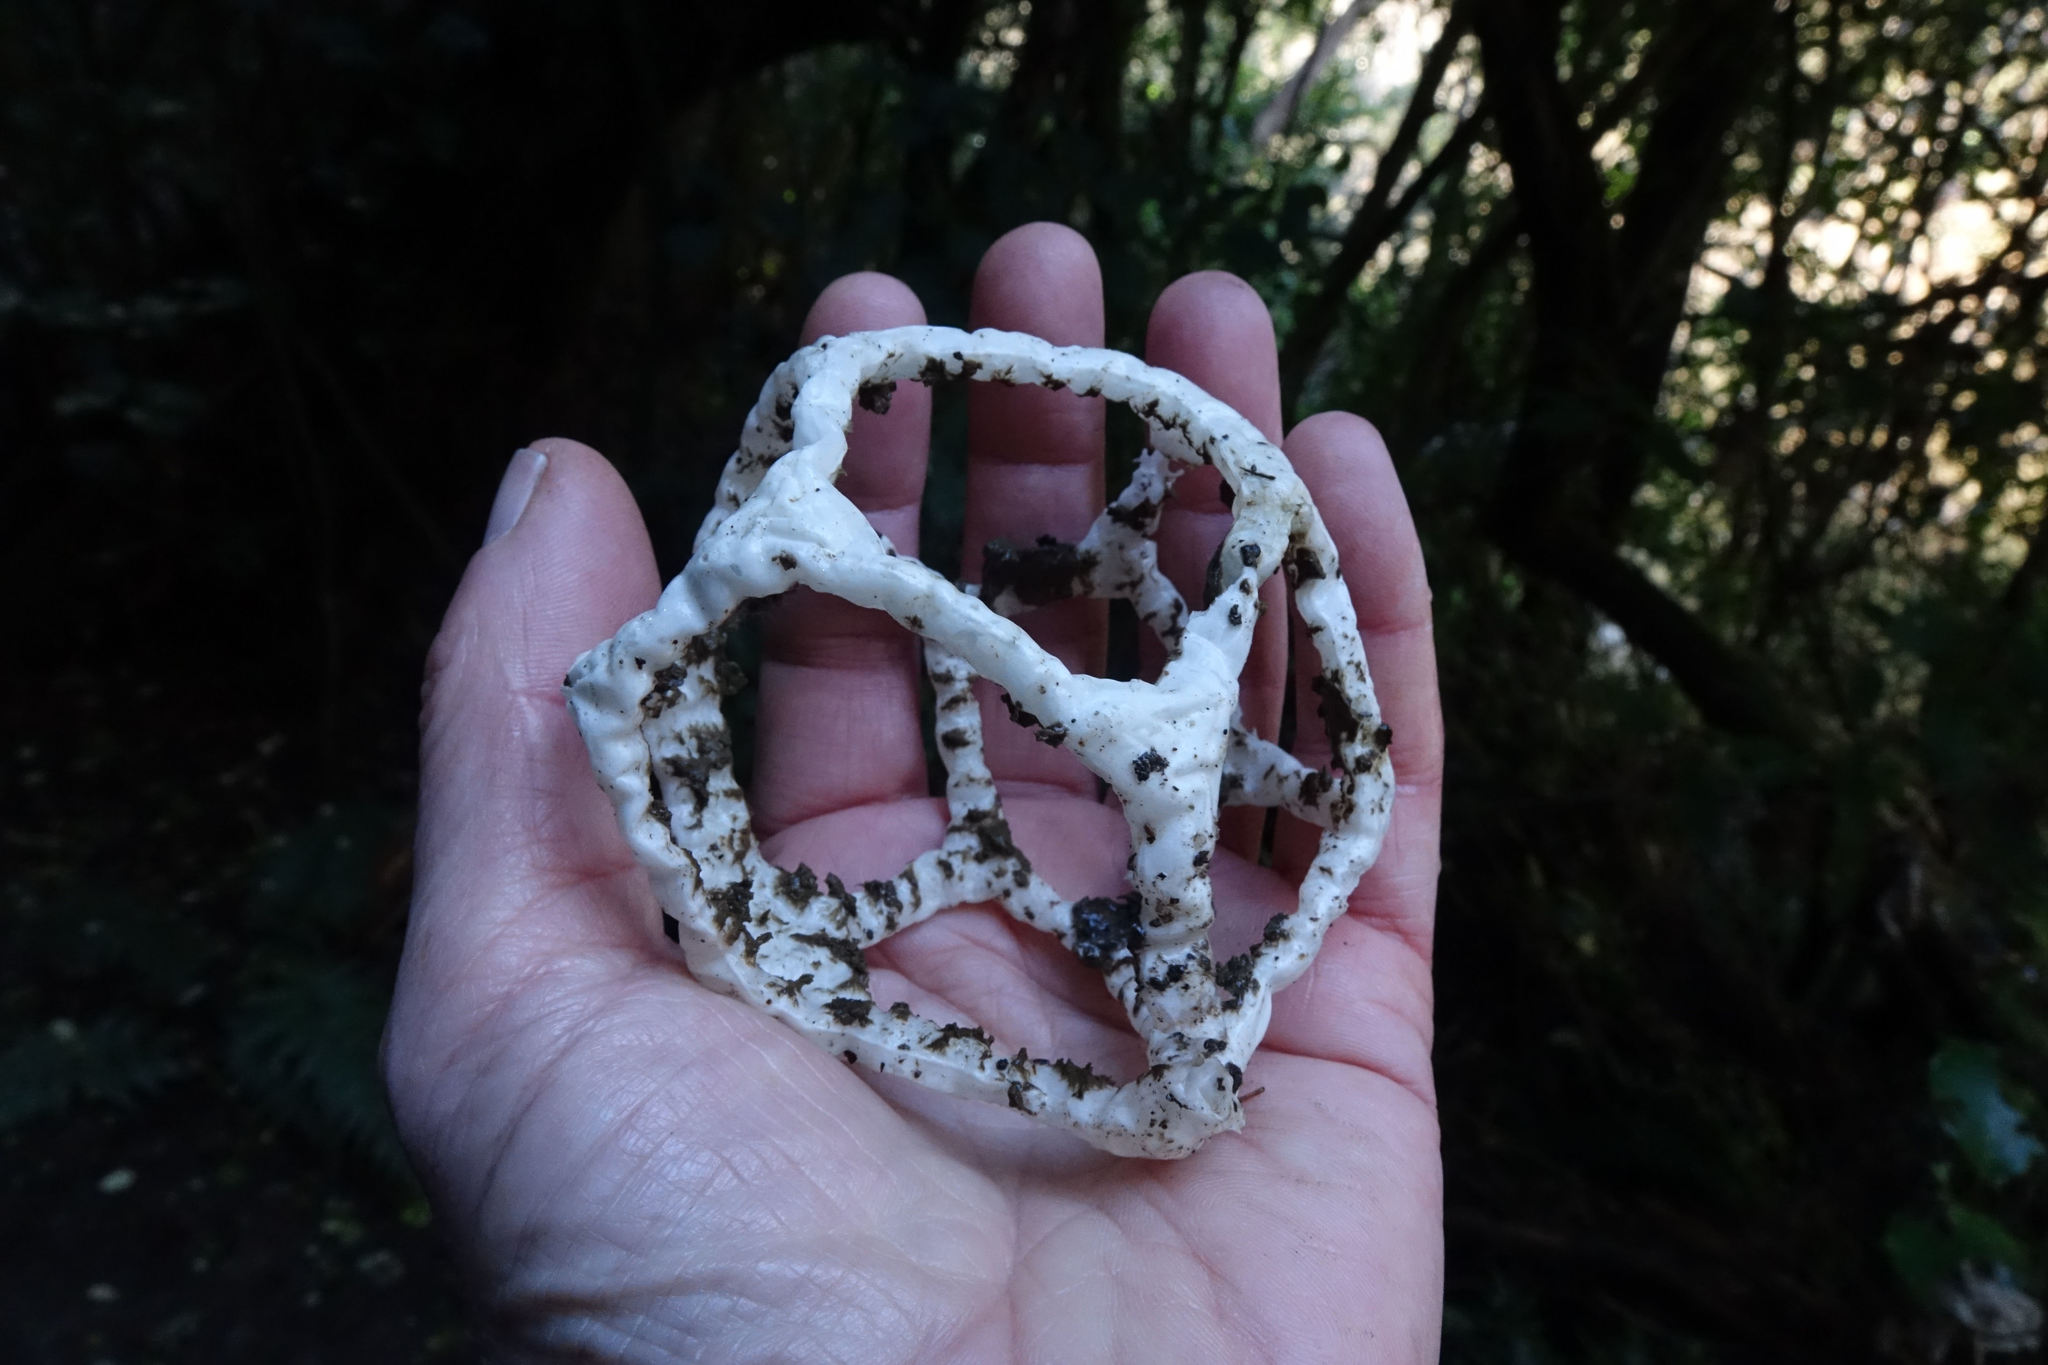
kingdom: Fungi
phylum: Basidiomycota
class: Agaricomycetes
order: Phallales
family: Phallaceae
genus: Ileodictyon
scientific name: Ileodictyon cibarium
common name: Basket fungus
